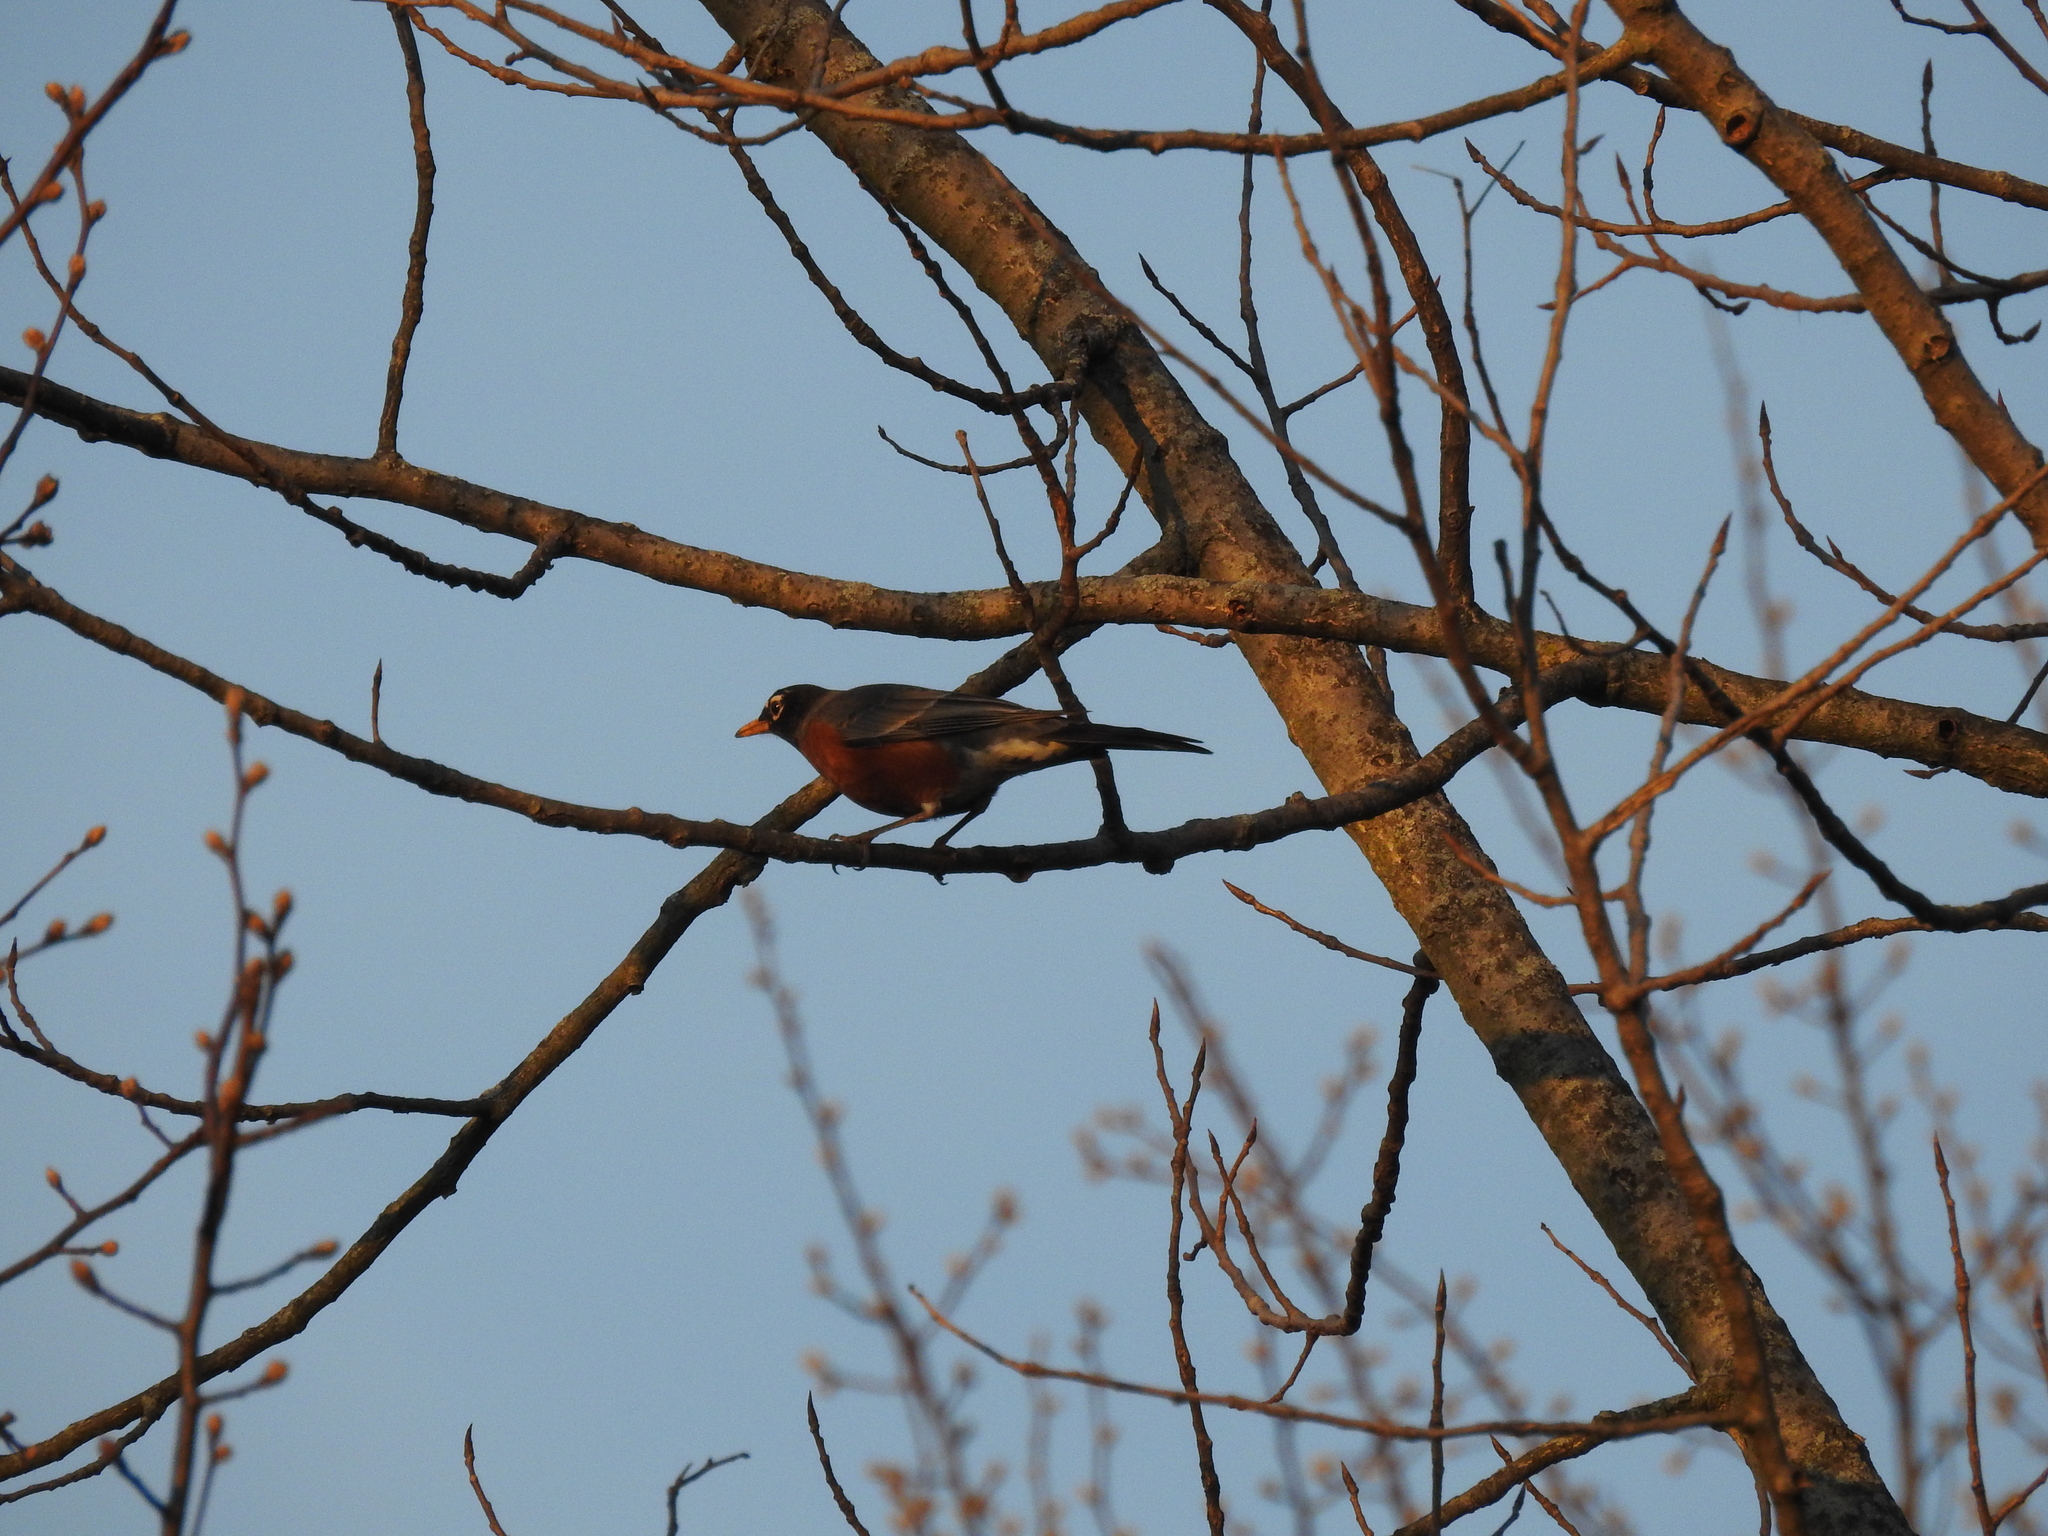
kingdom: Animalia
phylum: Chordata
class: Aves
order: Passeriformes
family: Turdidae
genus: Turdus
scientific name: Turdus migratorius
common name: American robin
